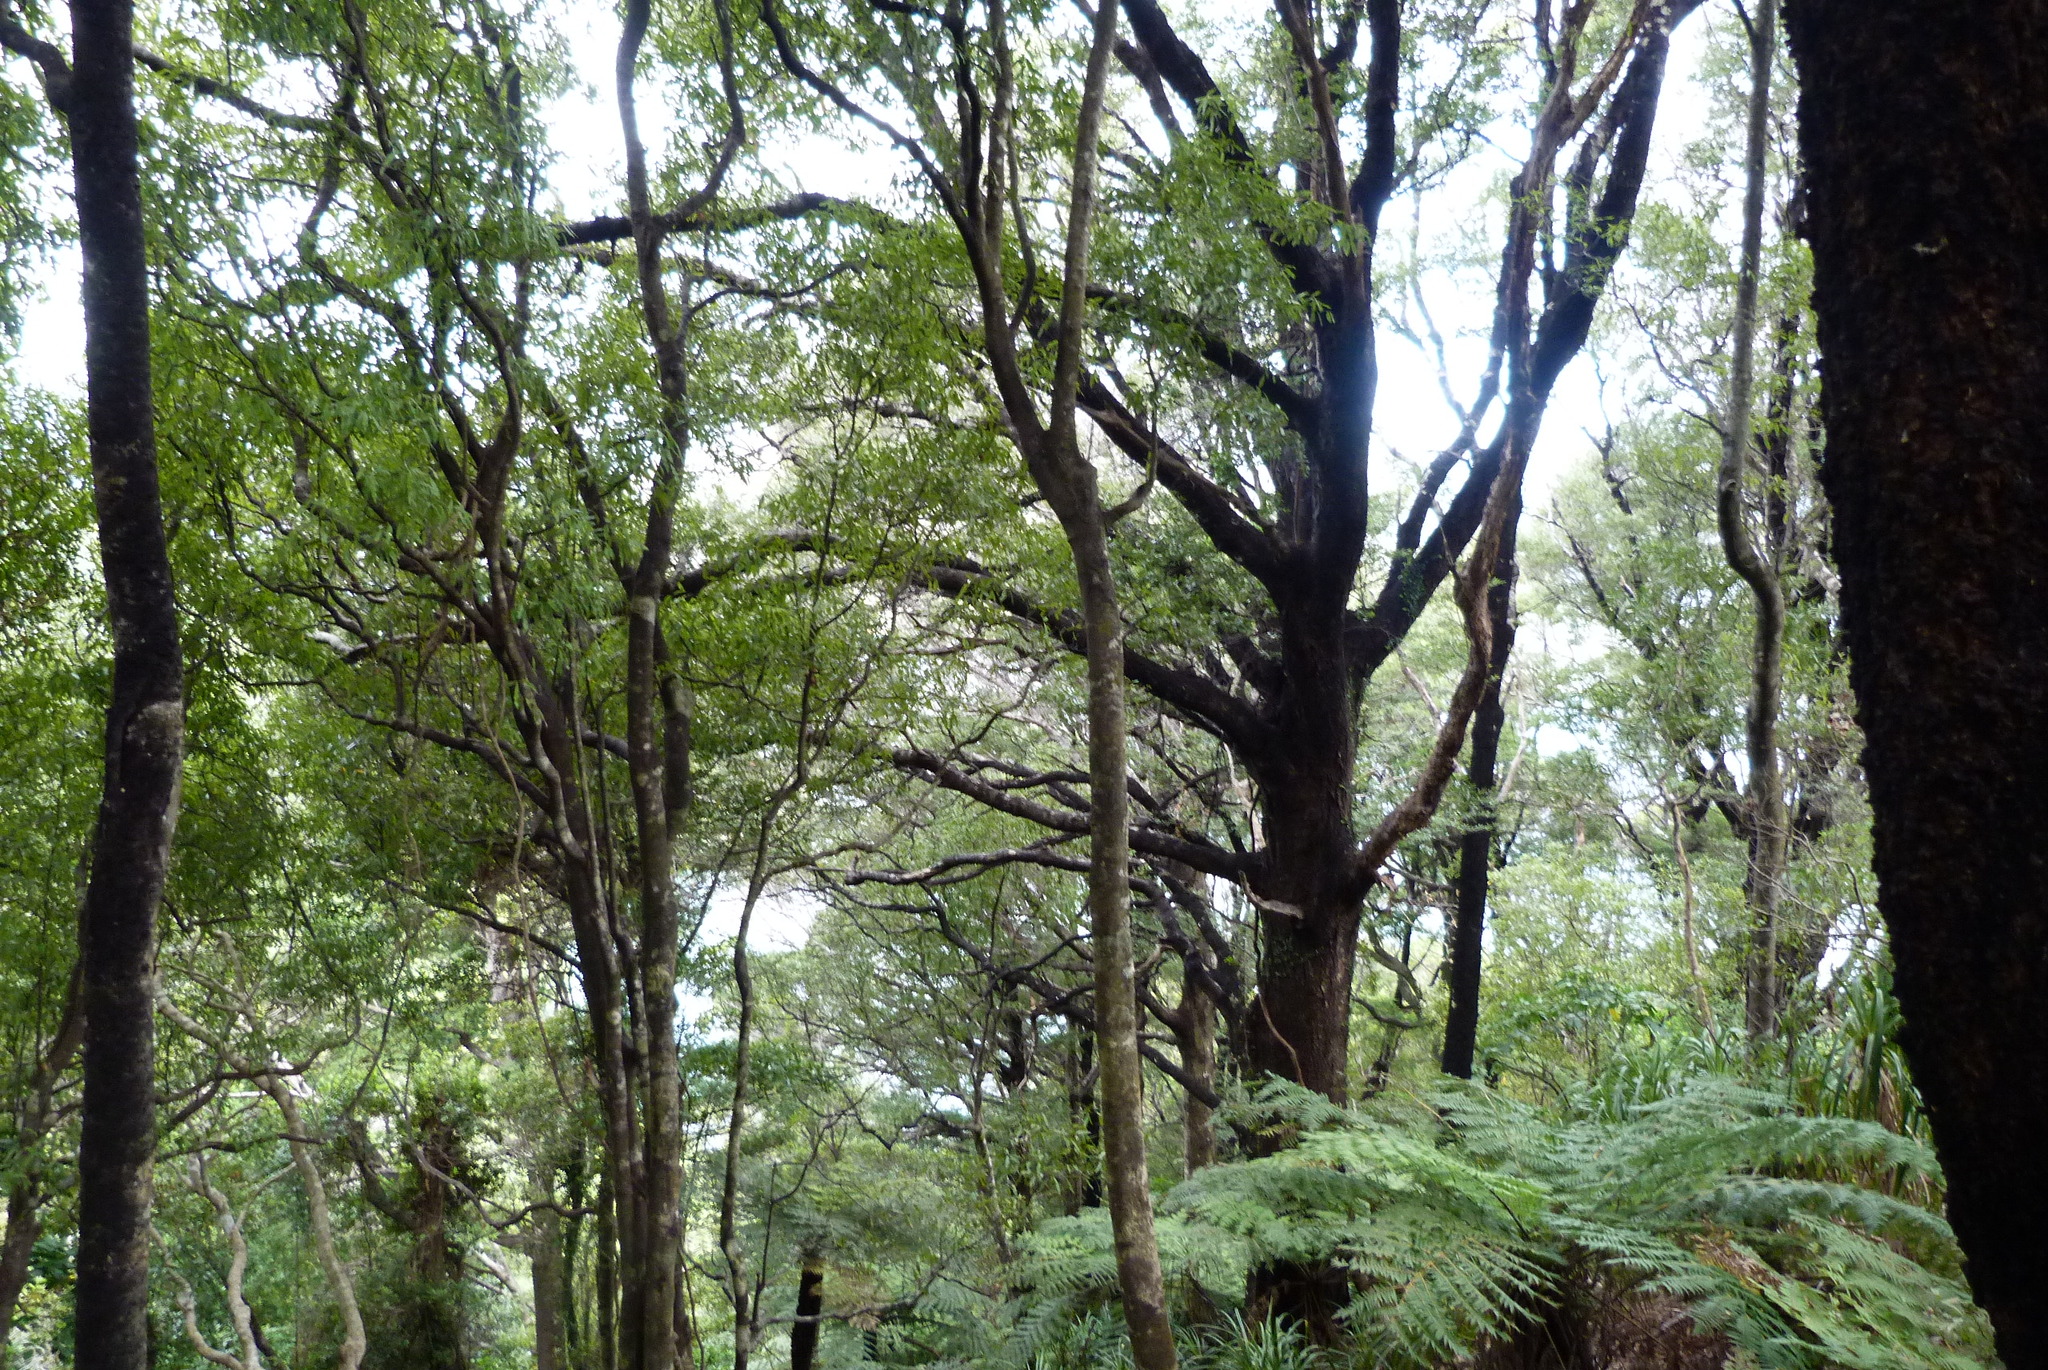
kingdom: Plantae
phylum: Tracheophyta
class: Magnoliopsida
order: Fagales
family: Nothofagaceae
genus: Nothofagus
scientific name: Nothofagus truncata
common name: Hard beech
